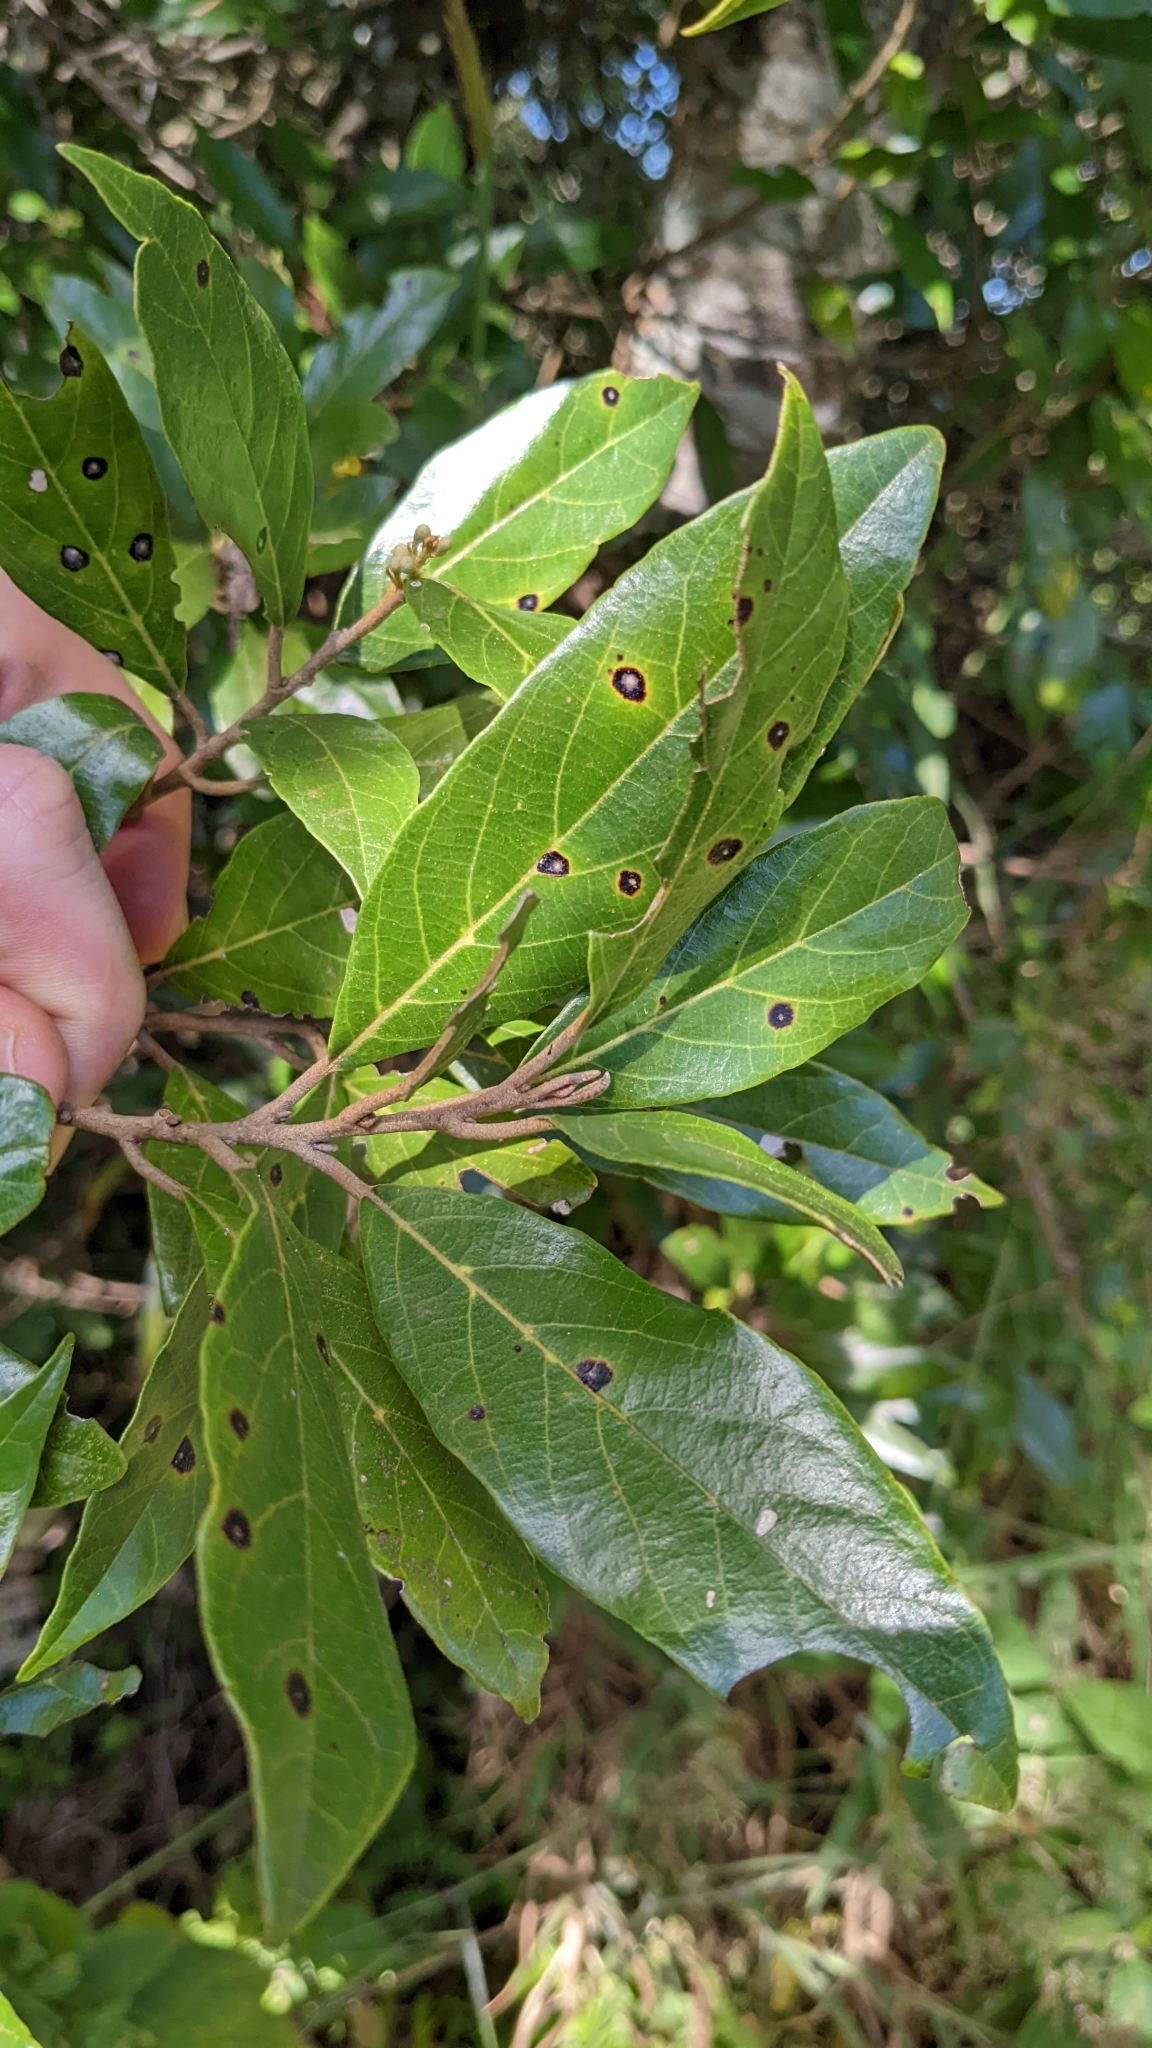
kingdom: Plantae
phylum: Tracheophyta
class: Magnoliopsida
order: Ericales
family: Styracaceae
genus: Styrax
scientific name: Styrax warscewiczii
